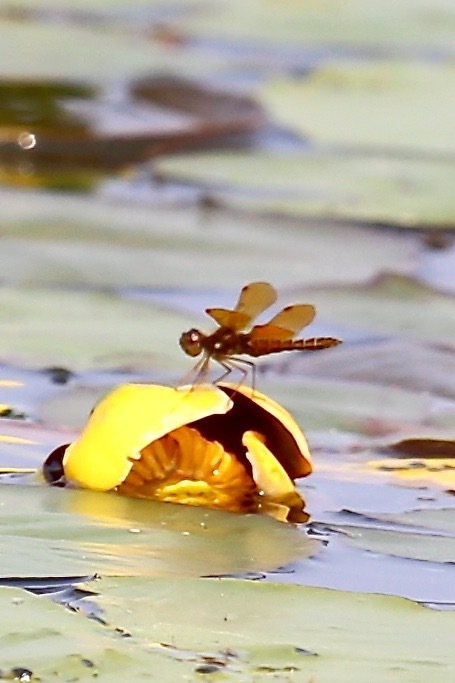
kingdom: Animalia
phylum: Arthropoda
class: Insecta
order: Odonata
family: Libellulidae
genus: Perithemis
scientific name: Perithemis tenera
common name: Eastern amberwing
